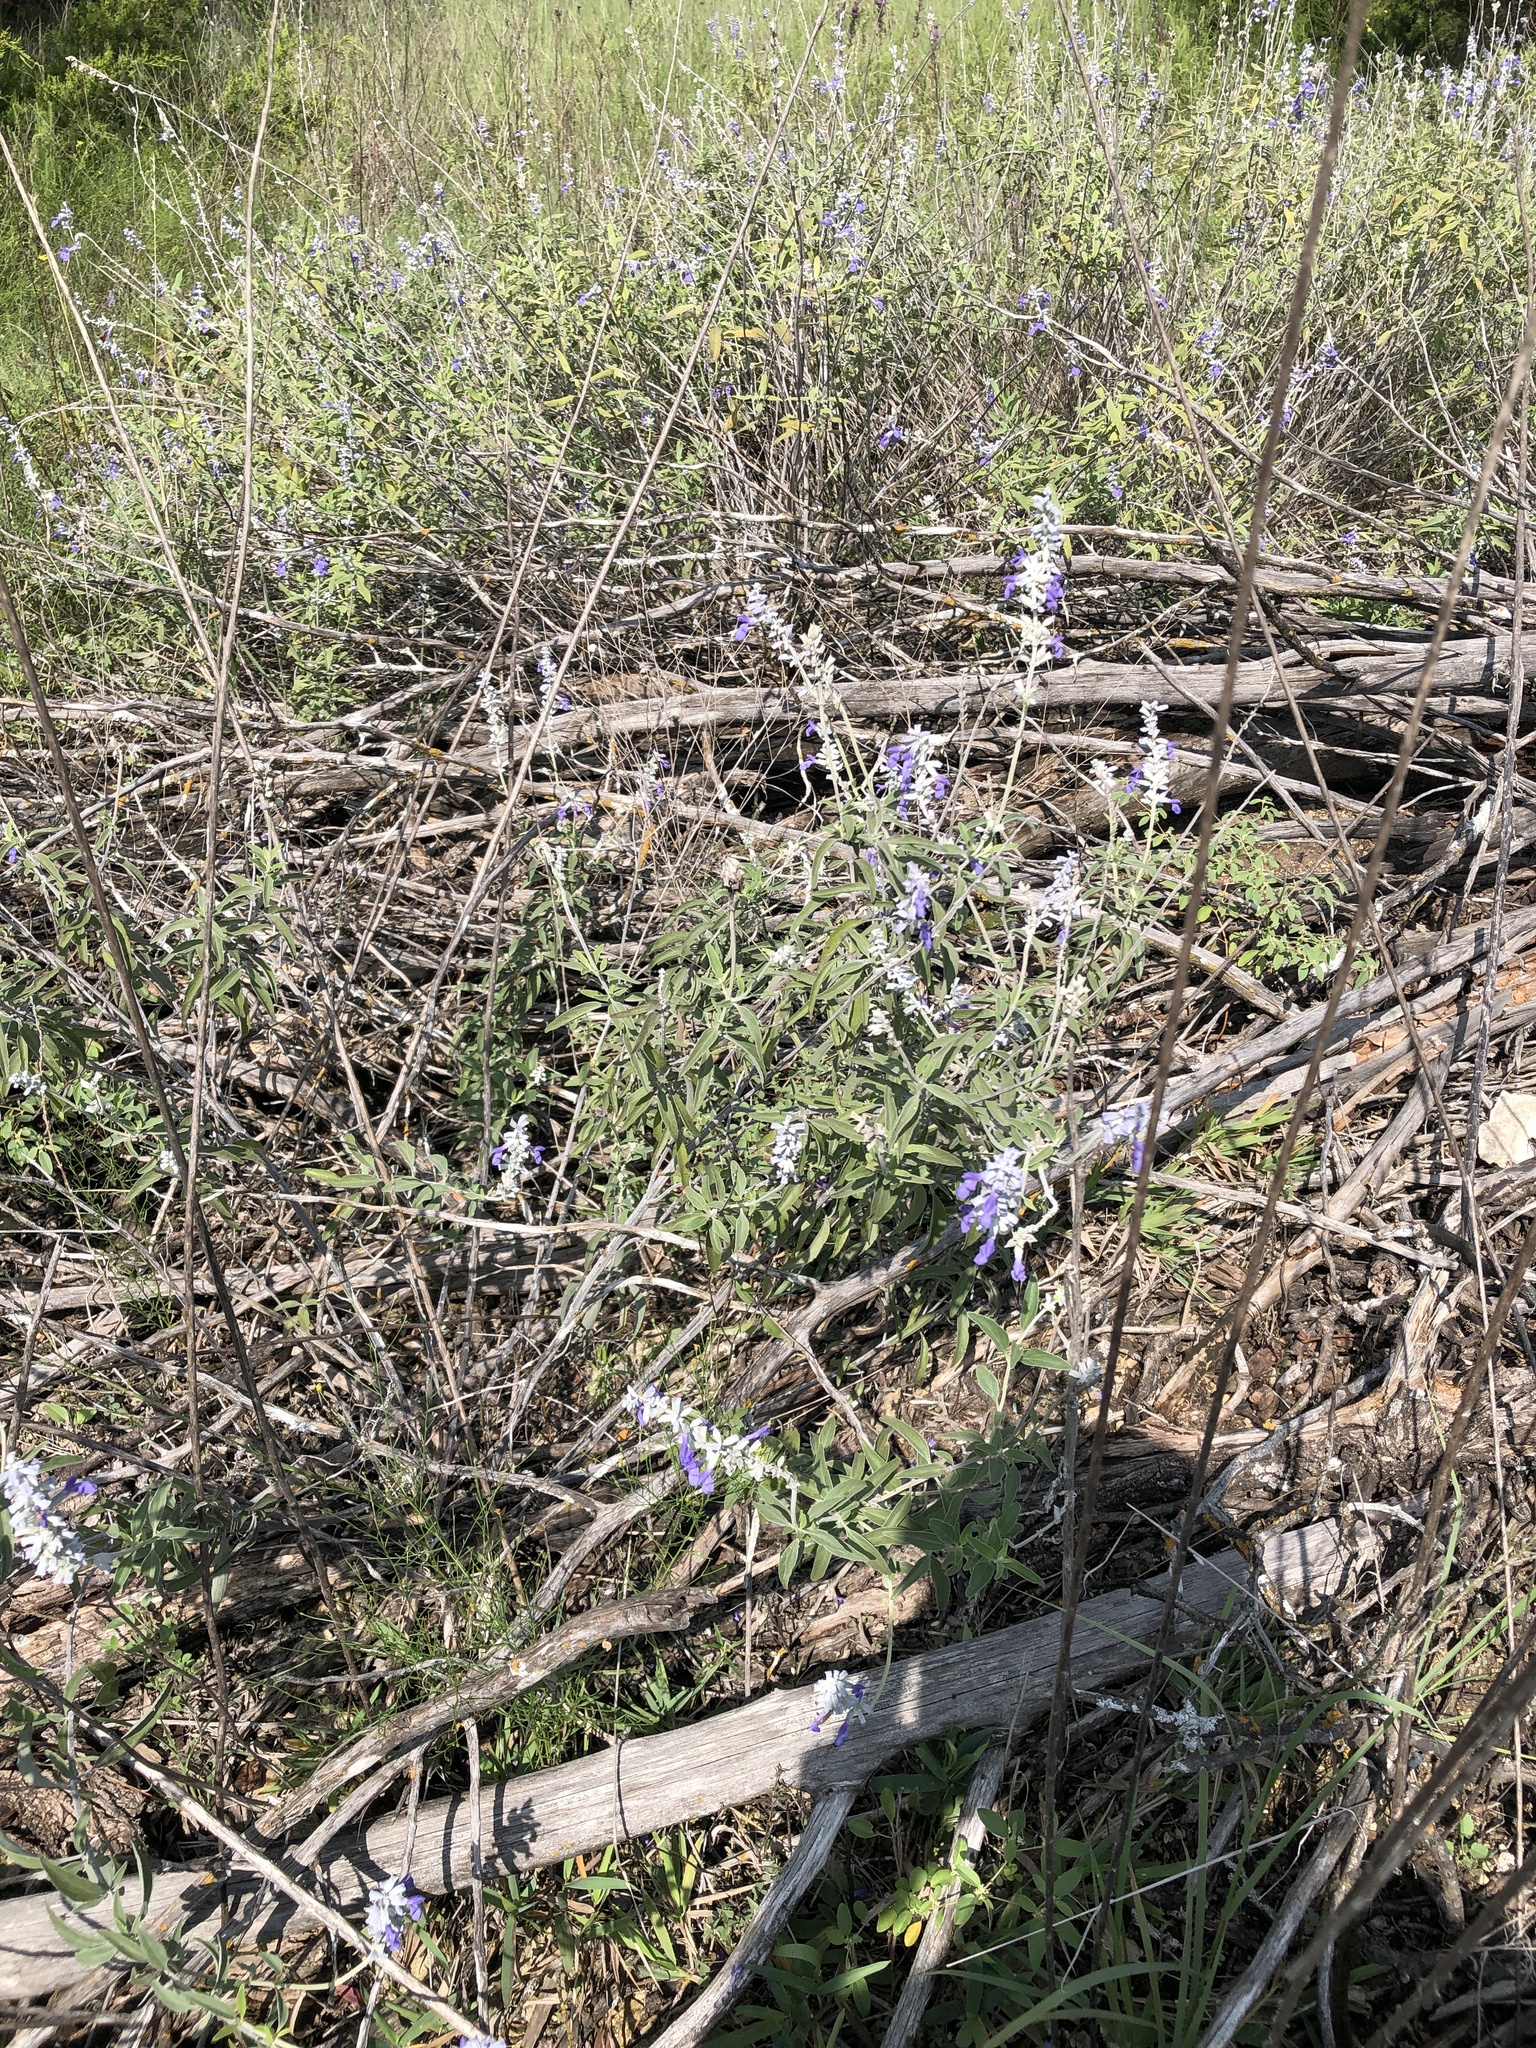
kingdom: Plantae
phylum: Tracheophyta
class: Magnoliopsida
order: Lamiales
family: Lamiaceae
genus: Salvia
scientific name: Salvia farinacea
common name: Mealy sage
